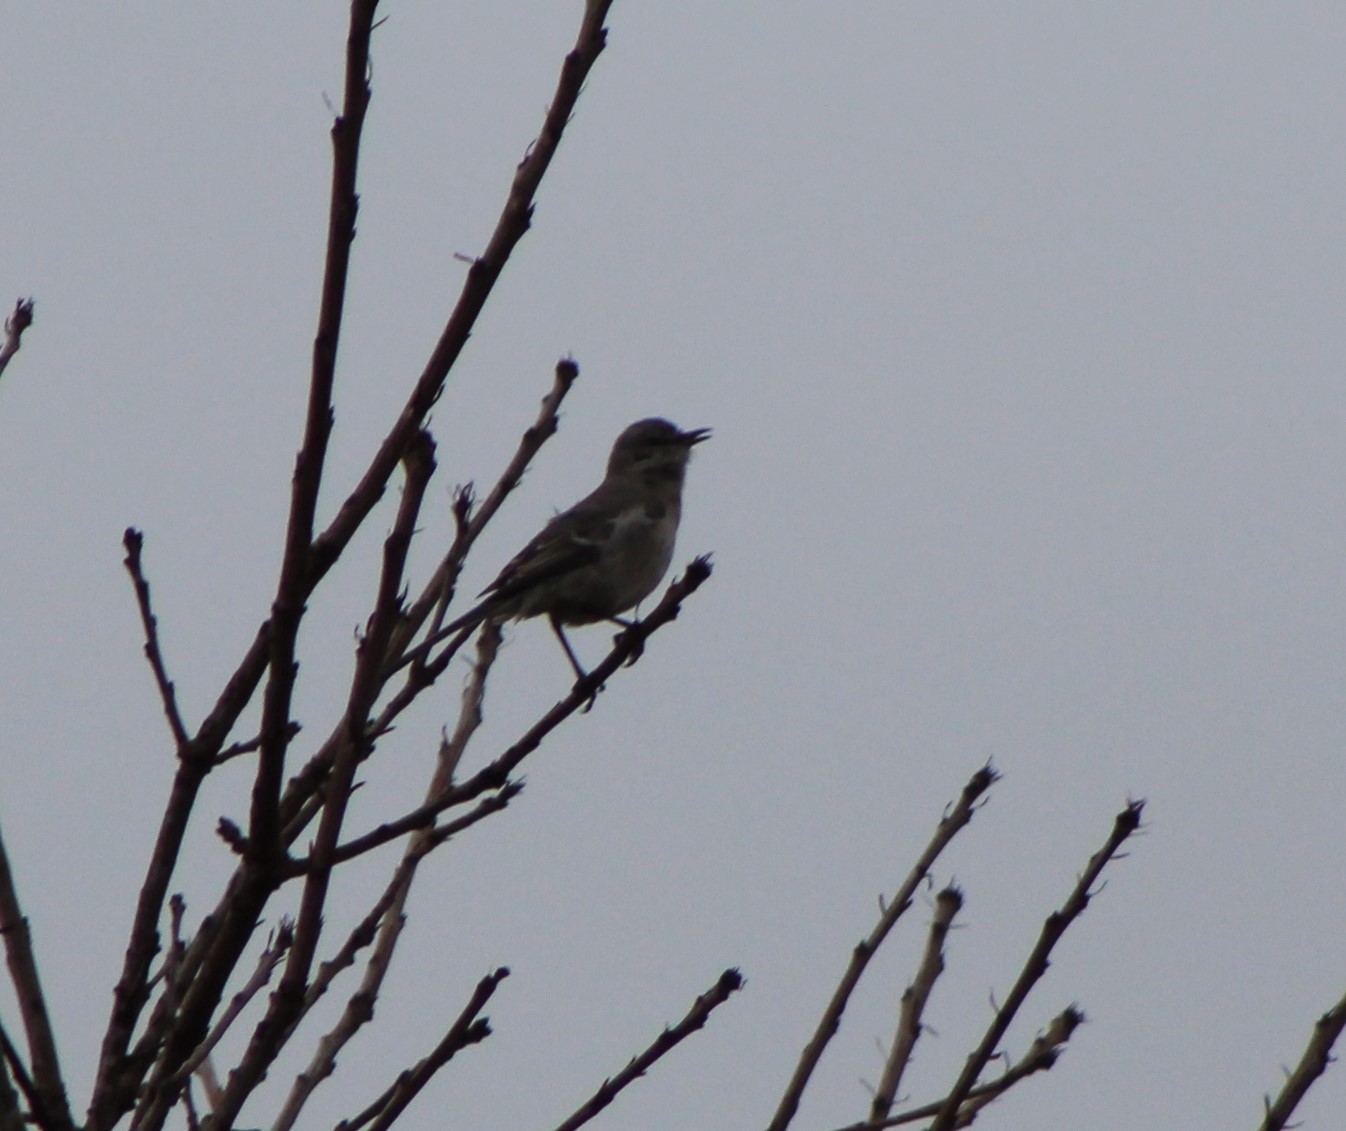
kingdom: Animalia
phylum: Chordata
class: Aves
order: Passeriformes
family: Mimidae
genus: Mimus
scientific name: Mimus polyglottos
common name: Northern mockingbird
